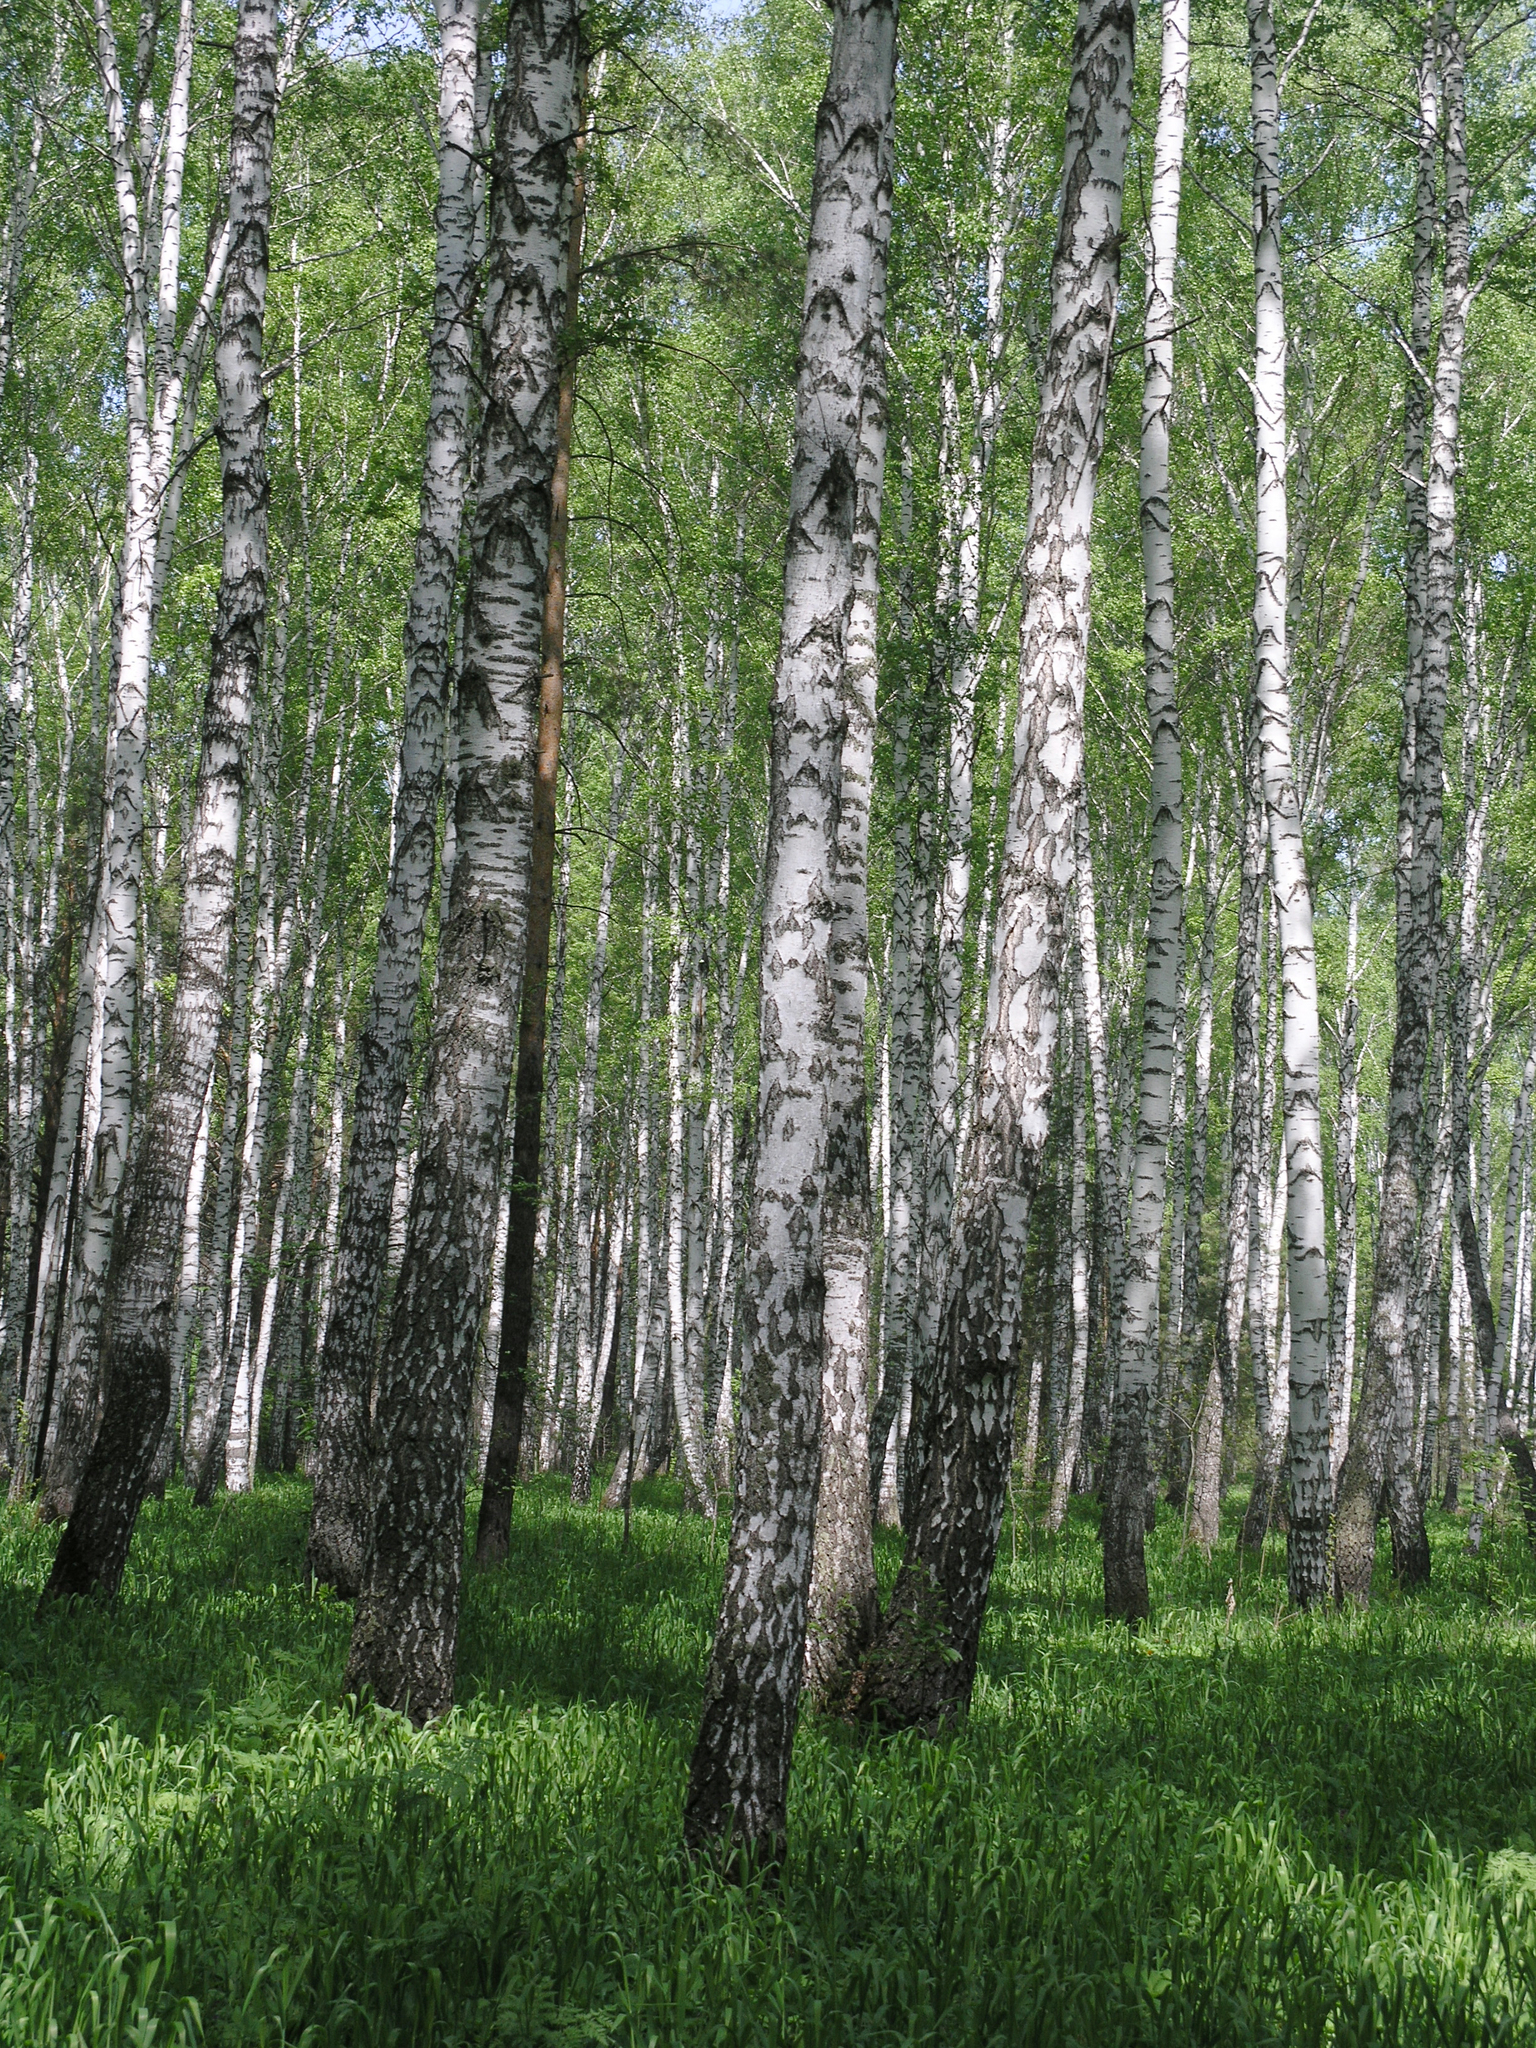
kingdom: Plantae
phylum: Tracheophyta
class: Magnoliopsida
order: Fagales
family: Betulaceae
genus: Betula
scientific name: Betula pendula
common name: Silver birch
